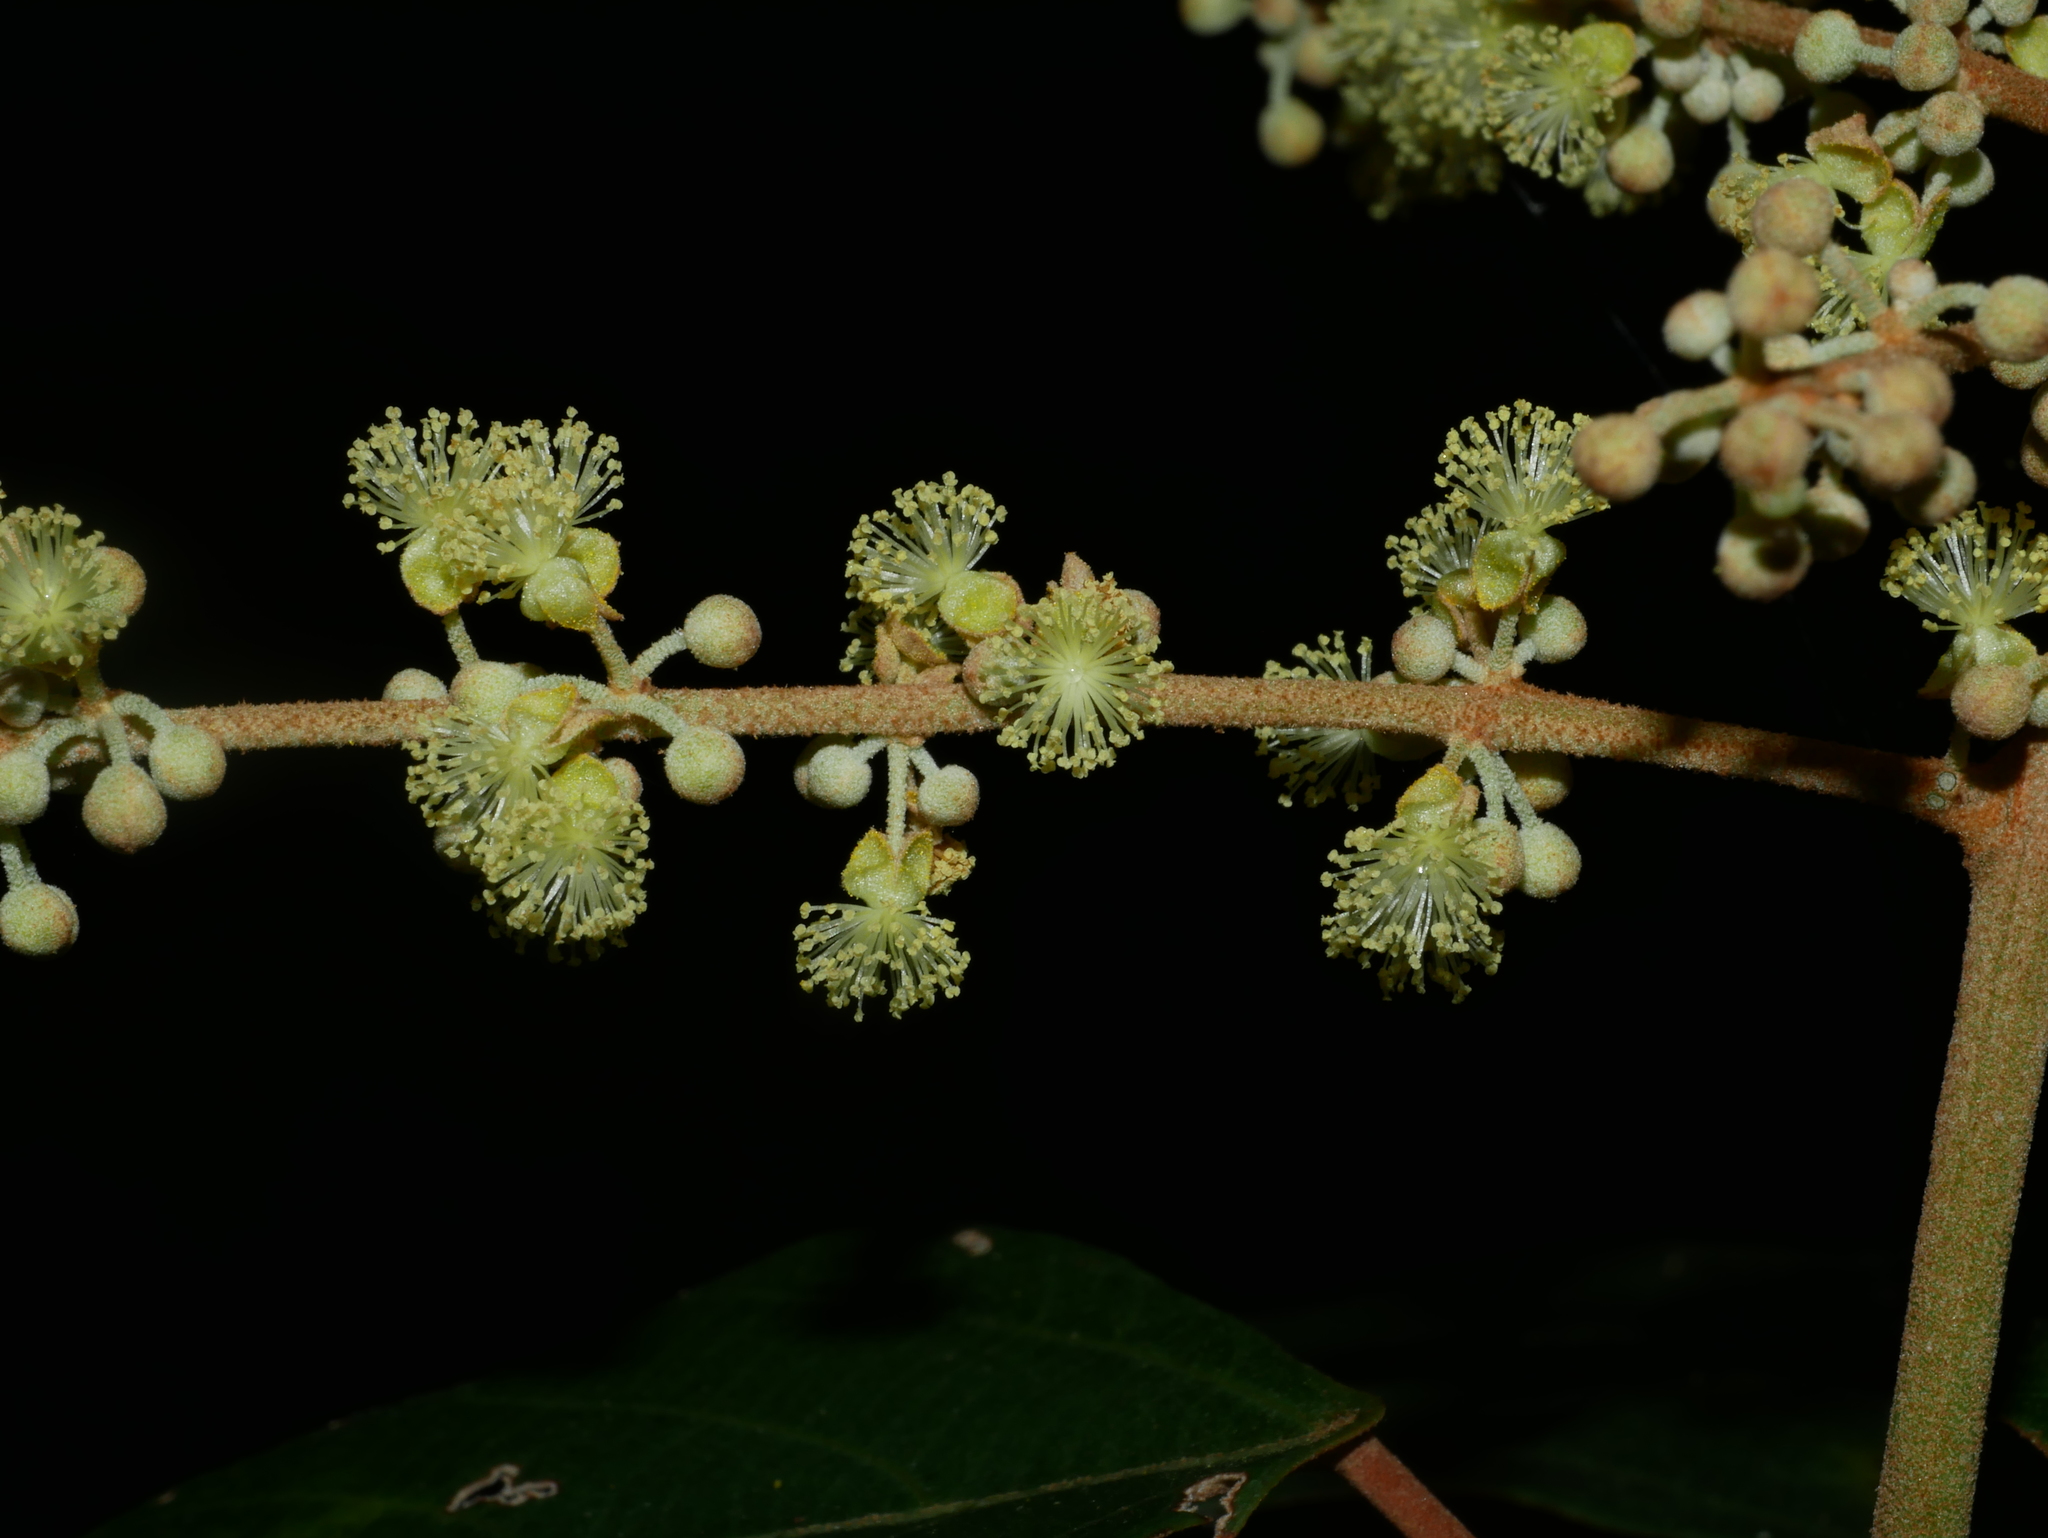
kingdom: Plantae
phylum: Tracheophyta
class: Magnoliopsida
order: Malpighiales
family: Euphorbiaceae
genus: Mallotus
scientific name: Mallotus paniculatus
